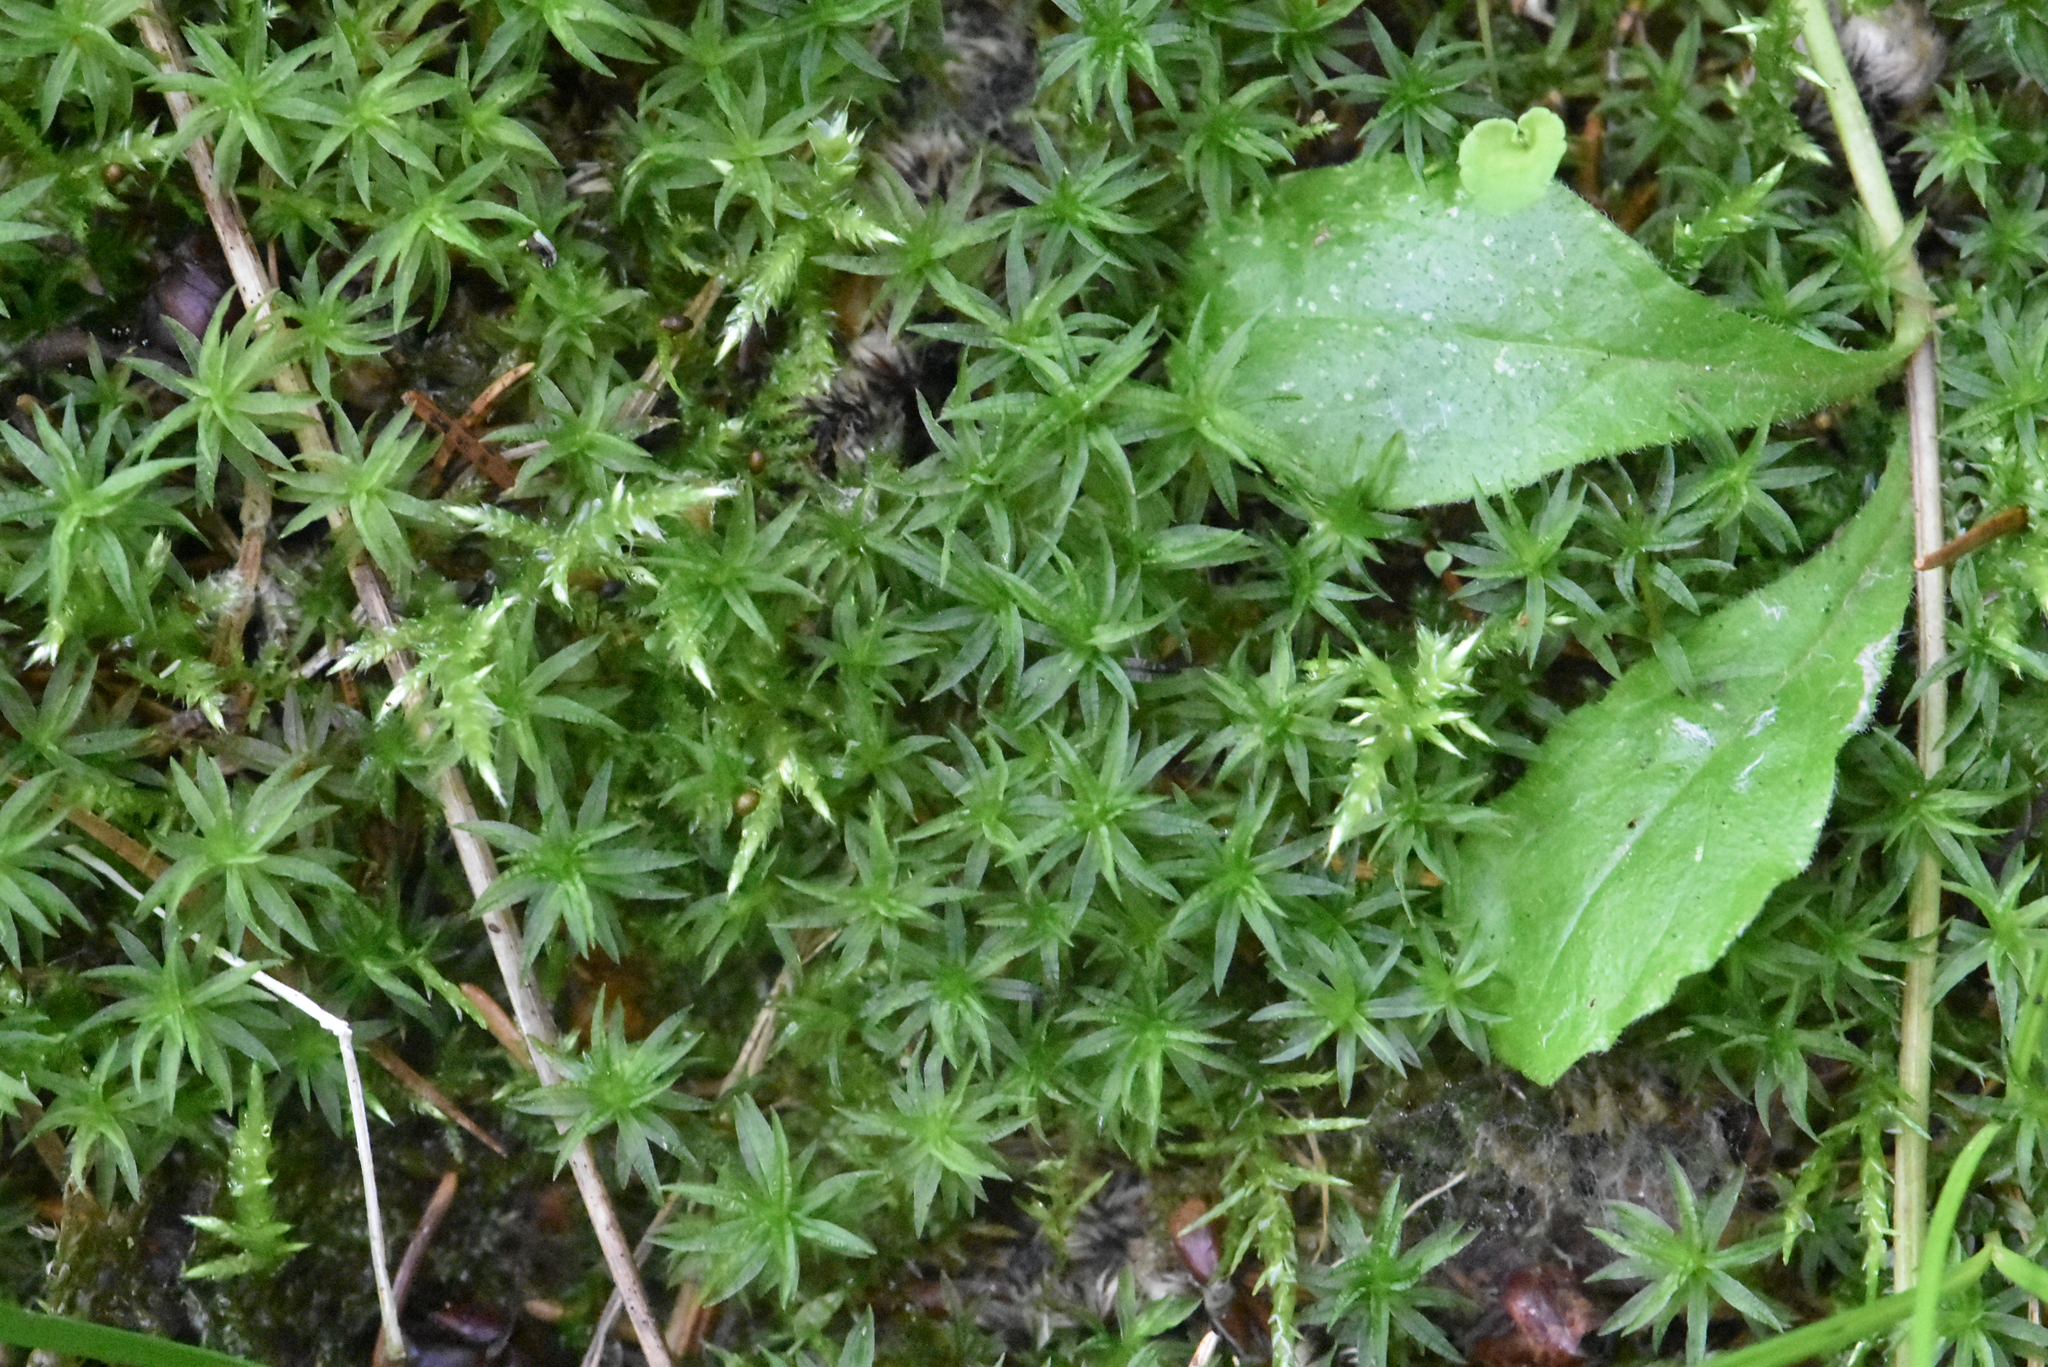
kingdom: Plantae
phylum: Bryophyta
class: Polytrichopsida
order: Polytrichales
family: Polytrichaceae
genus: Atrichum
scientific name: Atrichum undulatum
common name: Common smoothcap
